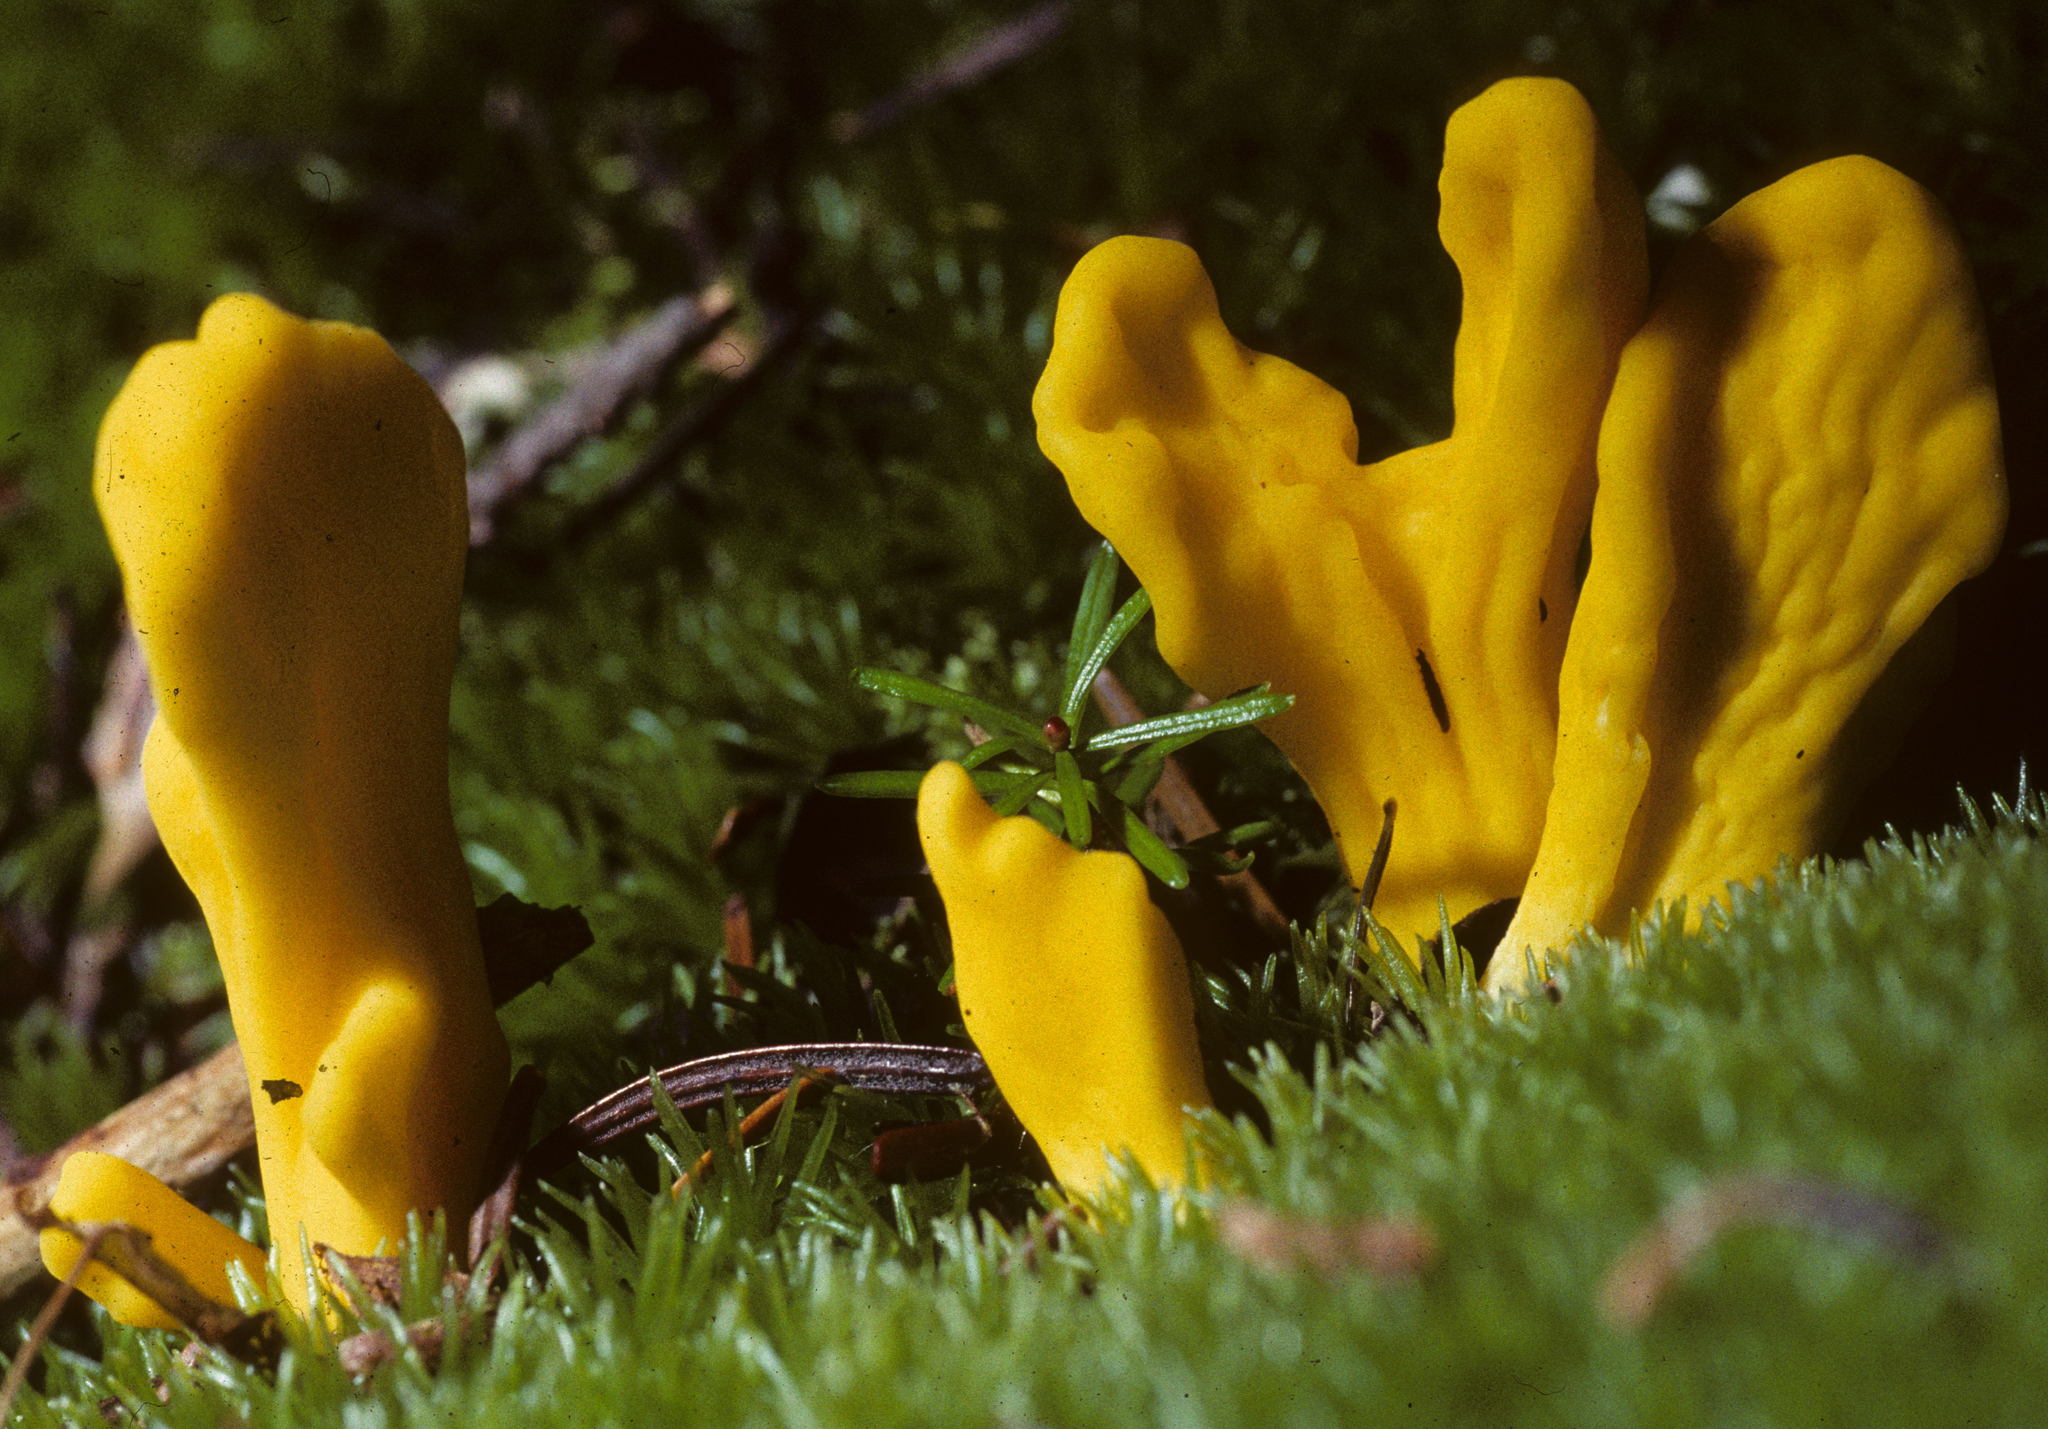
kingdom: Fungi
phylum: Ascomycota
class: Neolectomycetes
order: Neolectales
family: Neolectaceae
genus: Neolecta
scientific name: Neolecta irregularis
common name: Irregular earth tongue
